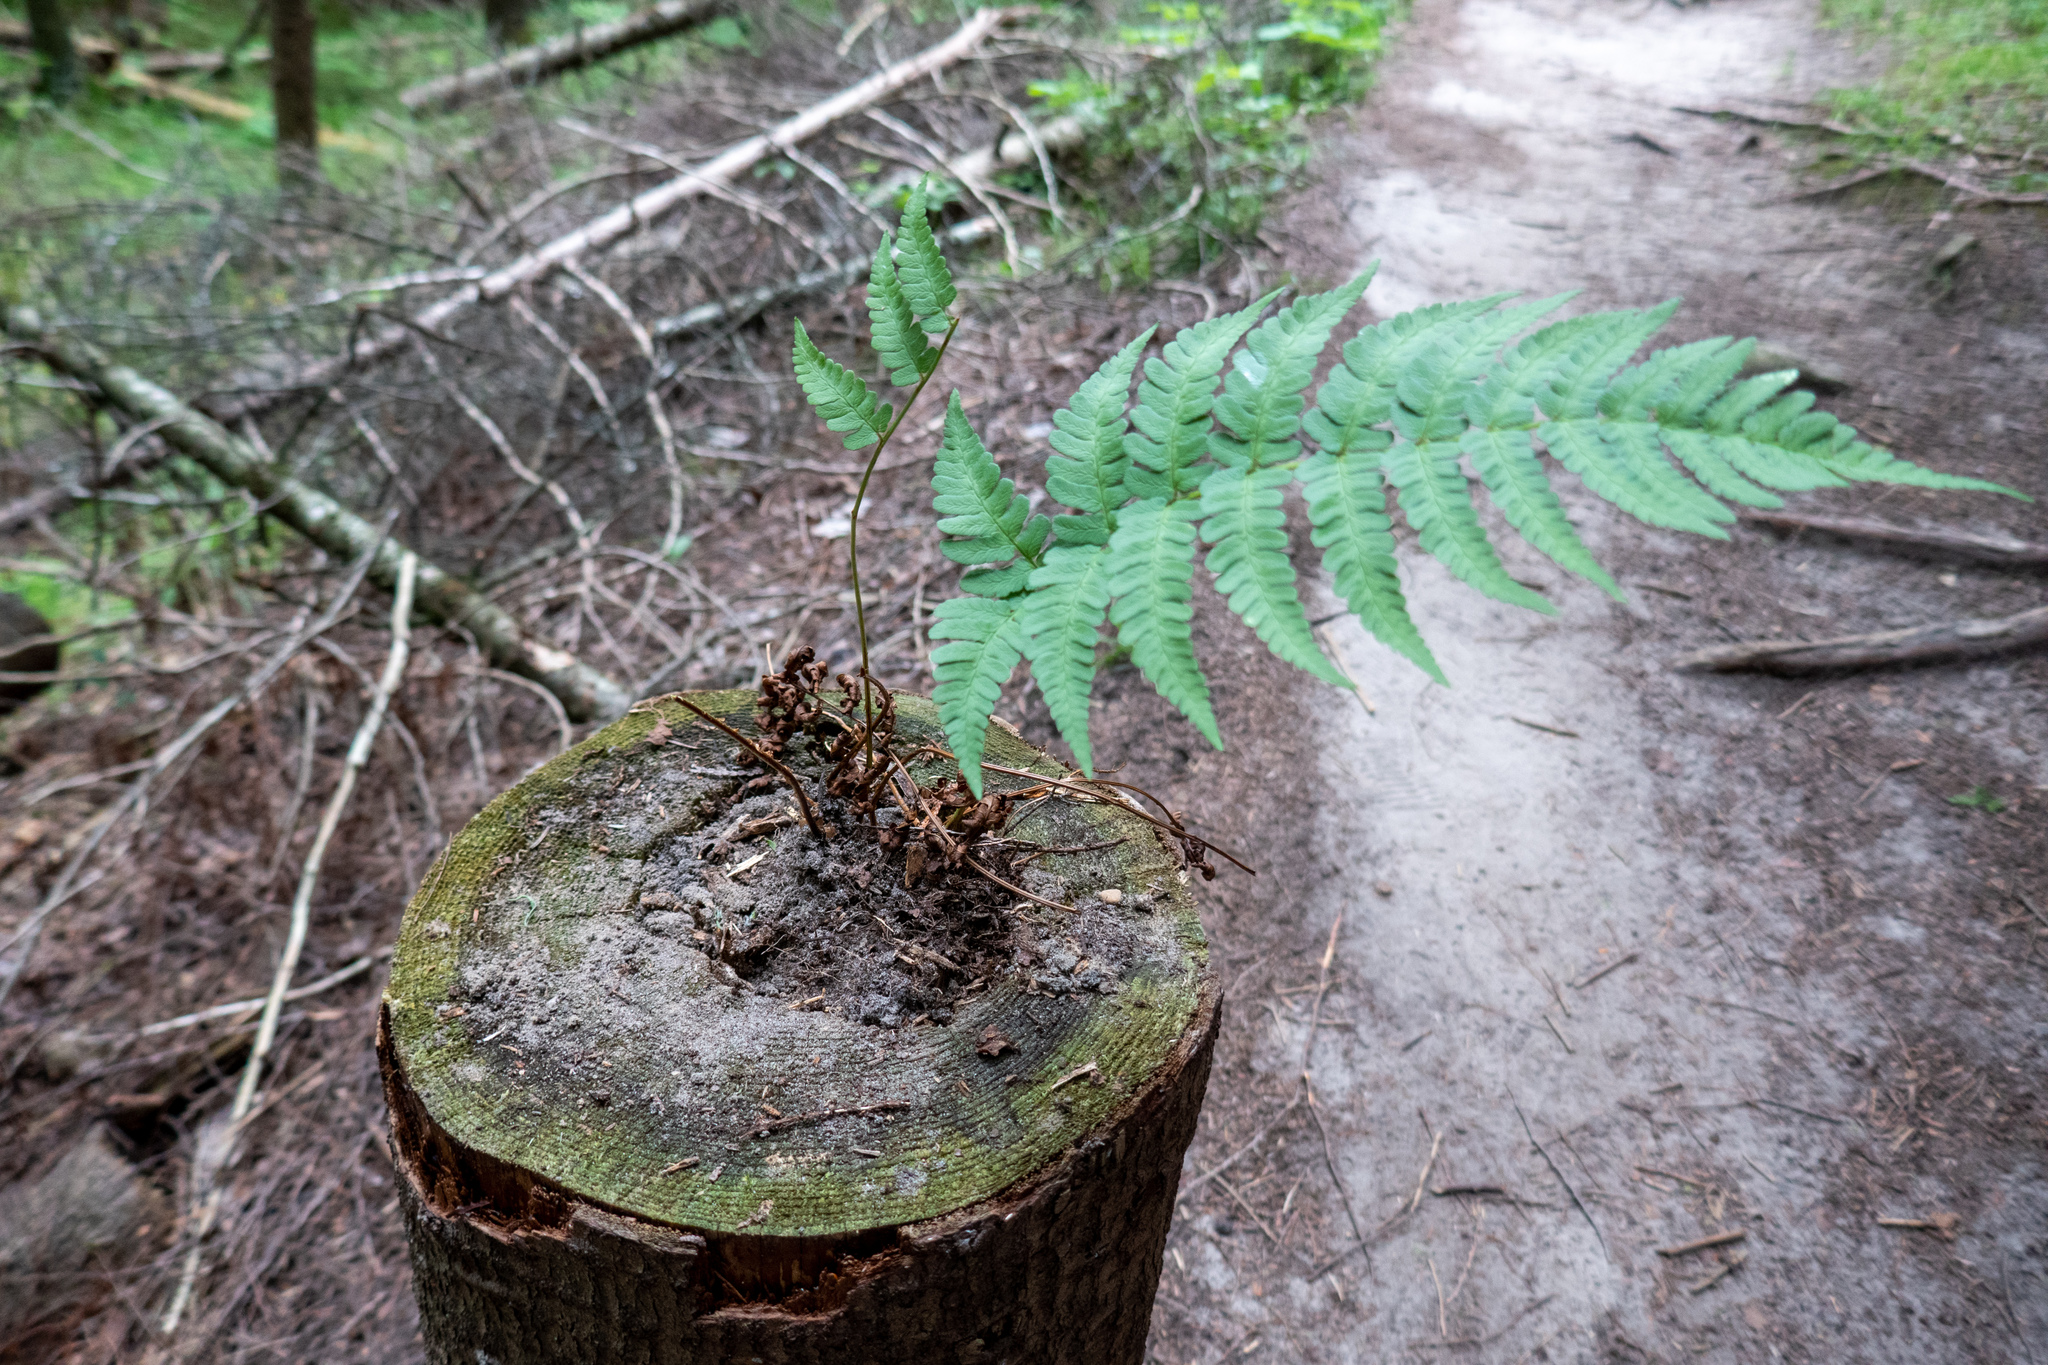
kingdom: Plantae
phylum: Tracheophyta
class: Polypodiopsida
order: Polypodiales
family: Dryopteridaceae
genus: Dryopteris
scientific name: Dryopteris marginalis
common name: Marginal wood fern
